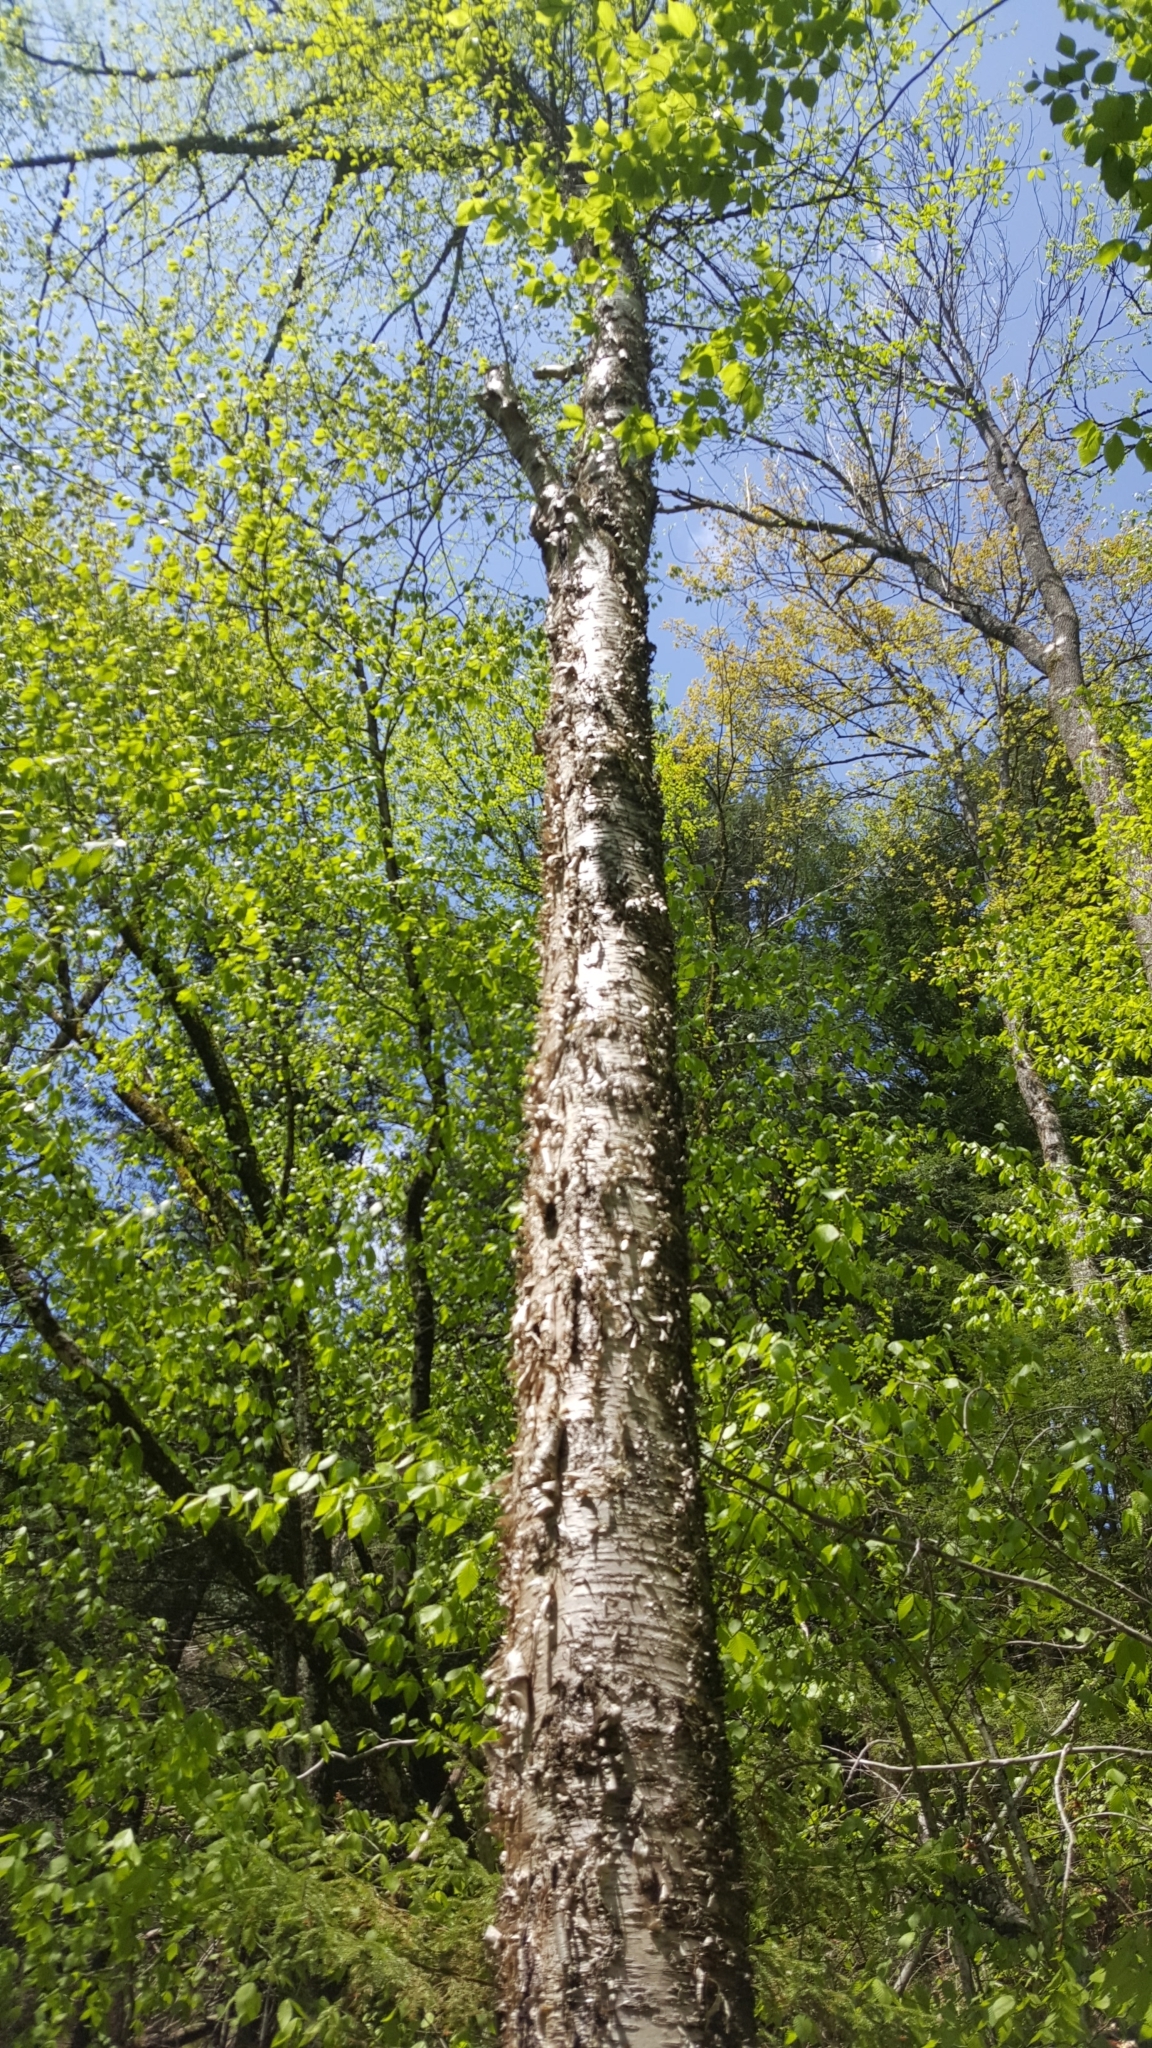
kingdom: Plantae
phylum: Tracheophyta
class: Magnoliopsida
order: Fagales
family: Betulaceae
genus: Betula
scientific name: Betula alleghaniensis
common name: Yellow birch
